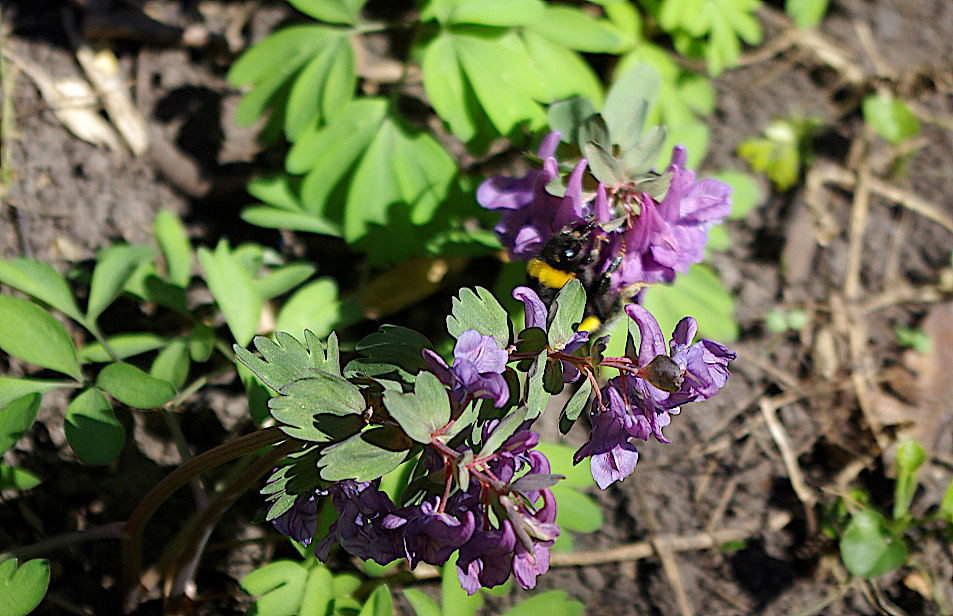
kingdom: Plantae
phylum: Tracheophyta
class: Magnoliopsida
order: Ranunculales
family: Papaveraceae
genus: Corydalis
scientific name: Corydalis solida
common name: Bird-in-a-bush
